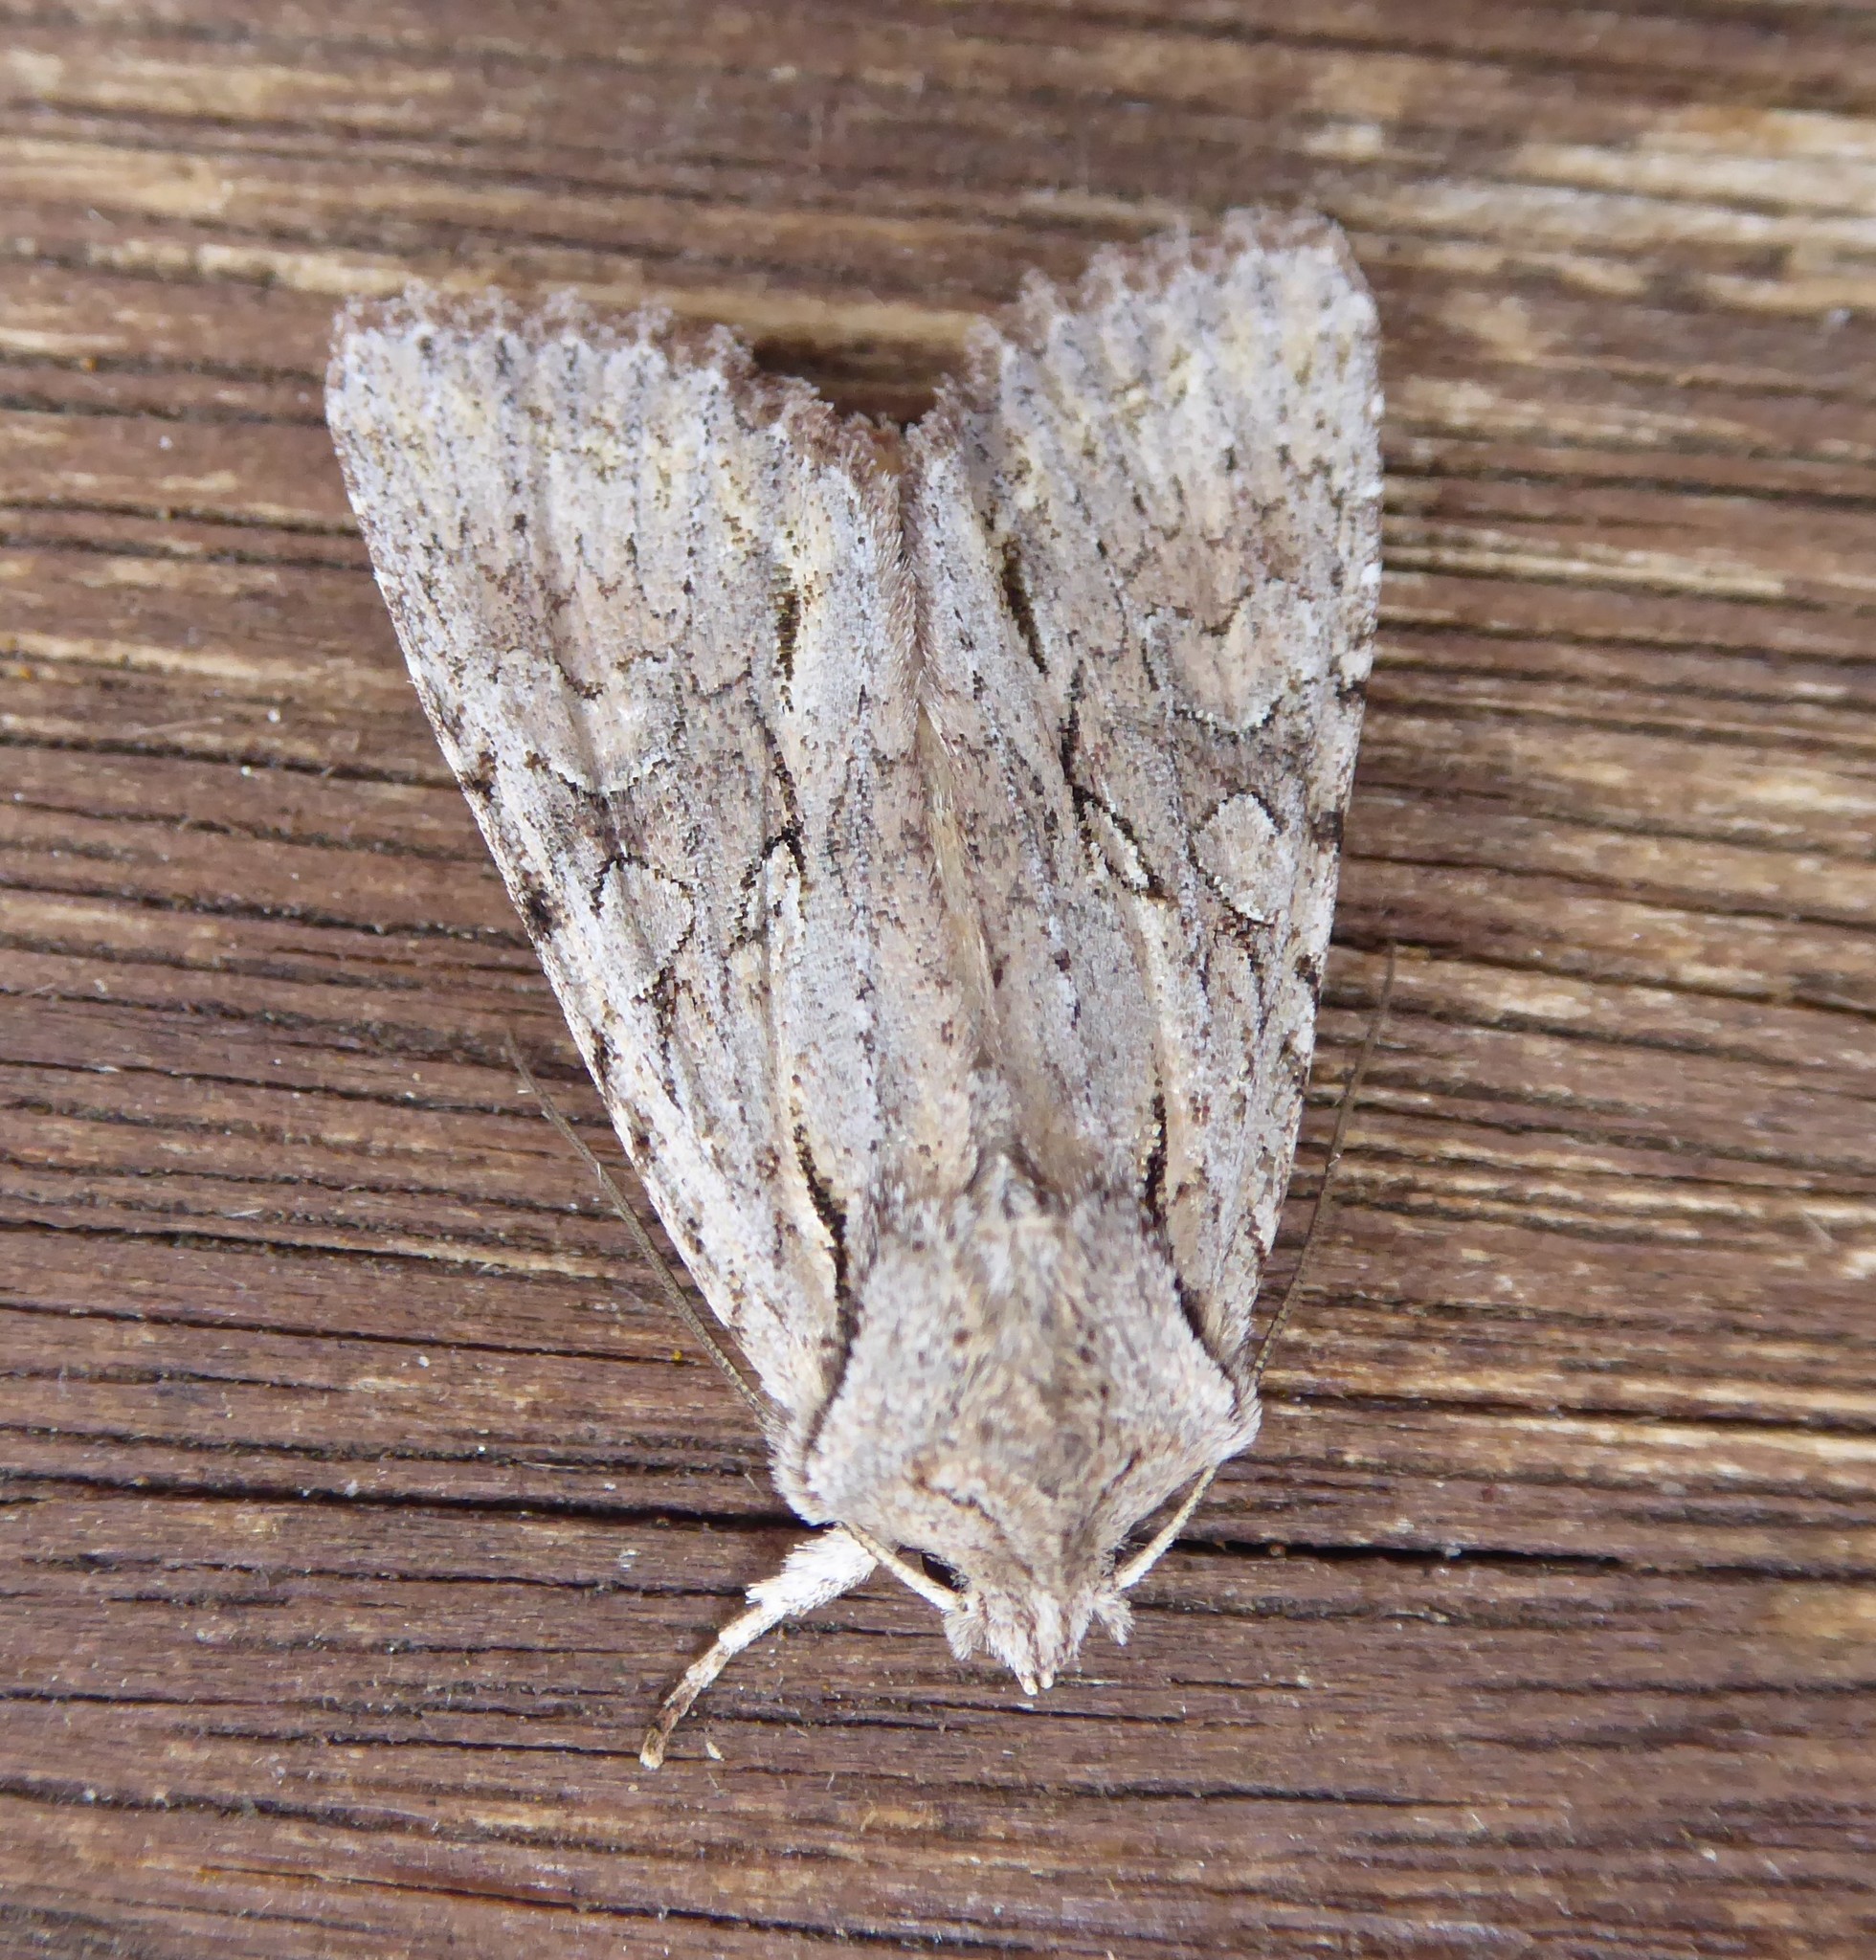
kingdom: Animalia
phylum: Arthropoda
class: Insecta
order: Lepidoptera
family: Noctuidae
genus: Ichneutica
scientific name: Ichneutica
